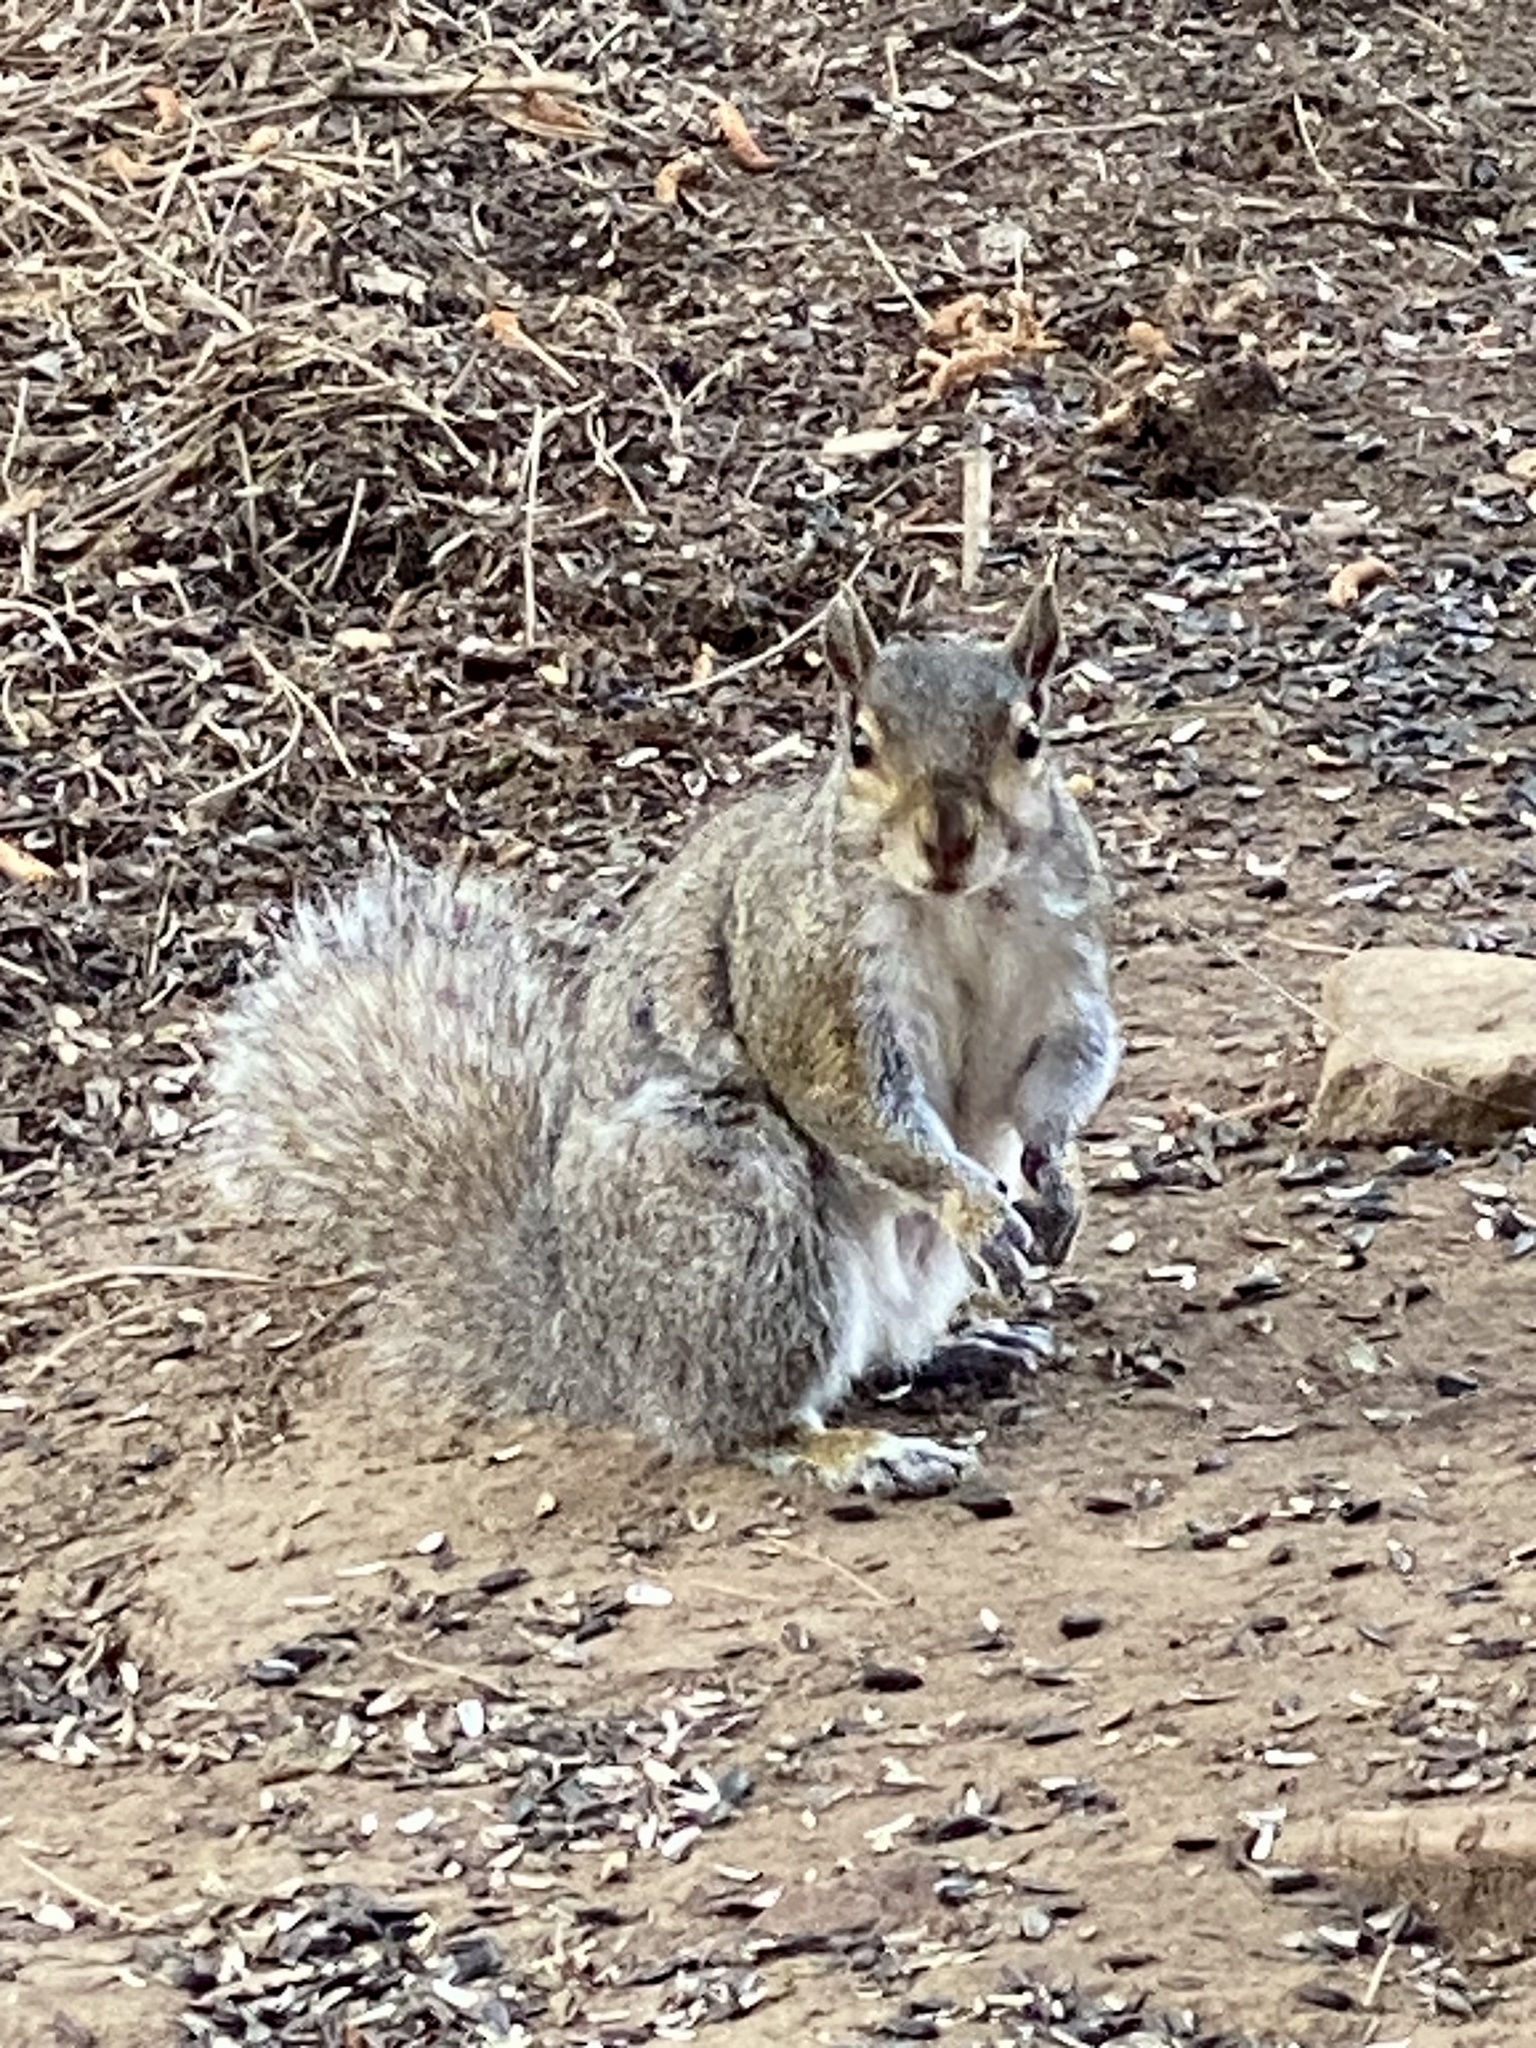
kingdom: Animalia
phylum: Chordata
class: Mammalia
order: Rodentia
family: Sciuridae
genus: Sciurus
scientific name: Sciurus carolinensis
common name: Eastern gray squirrel
